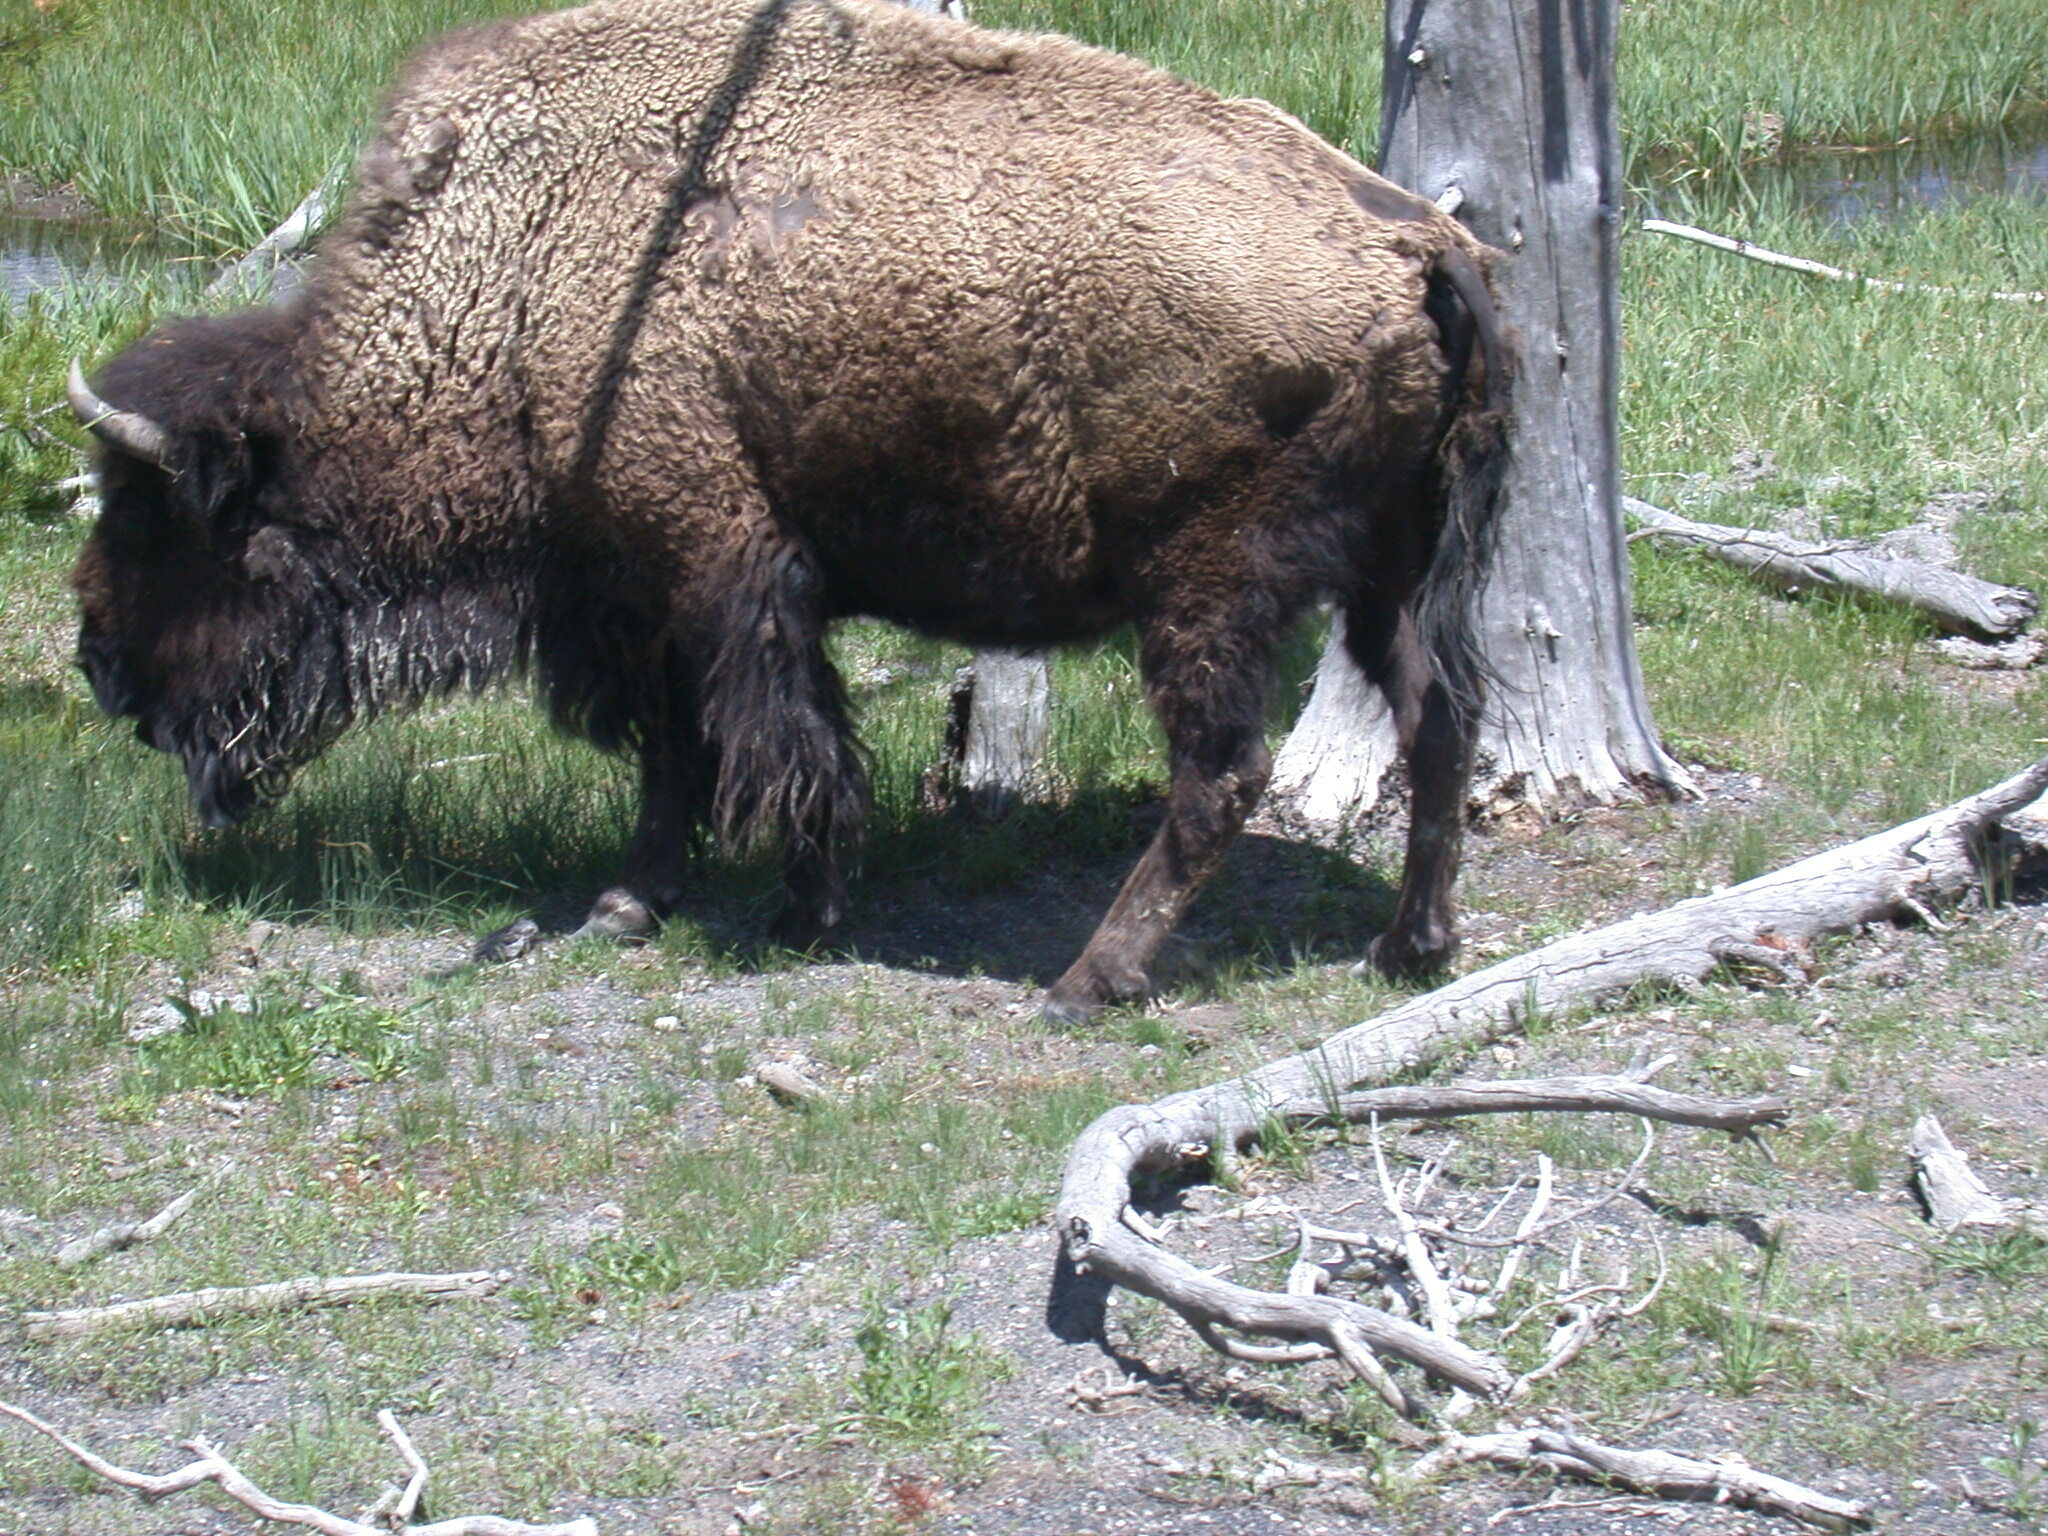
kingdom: Animalia
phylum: Chordata
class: Mammalia
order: Artiodactyla
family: Bovidae
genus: Bison
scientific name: Bison bison
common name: American bison
